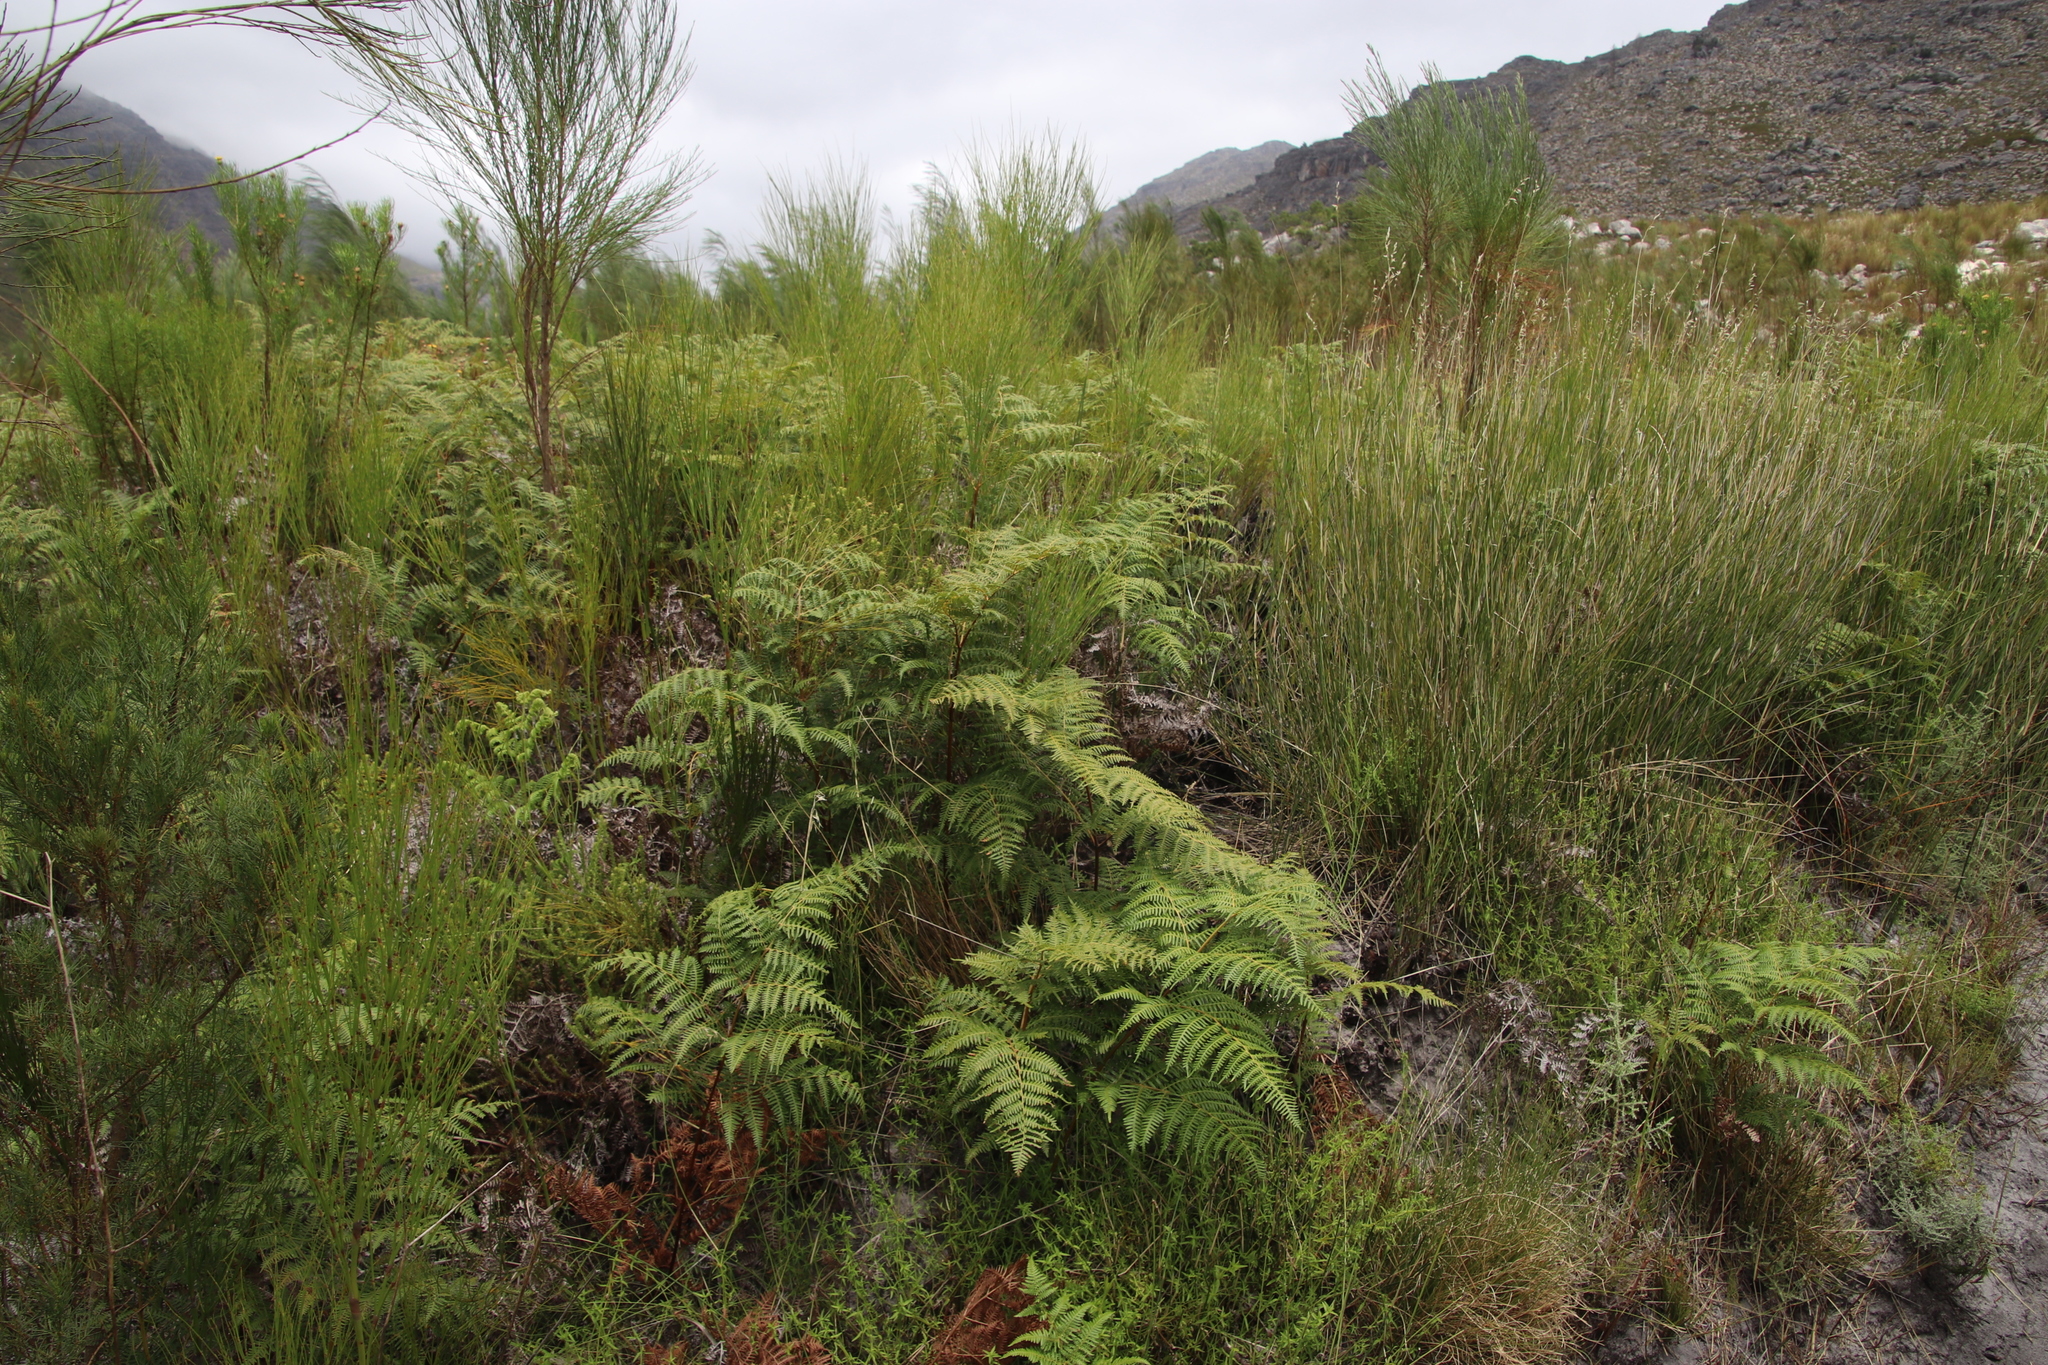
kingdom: Plantae
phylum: Tracheophyta
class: Polypodiopsida
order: Polypodiales
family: Dennstaedtiaceae
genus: Pteridium
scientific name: Pteridium aquilinum
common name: Bracken
